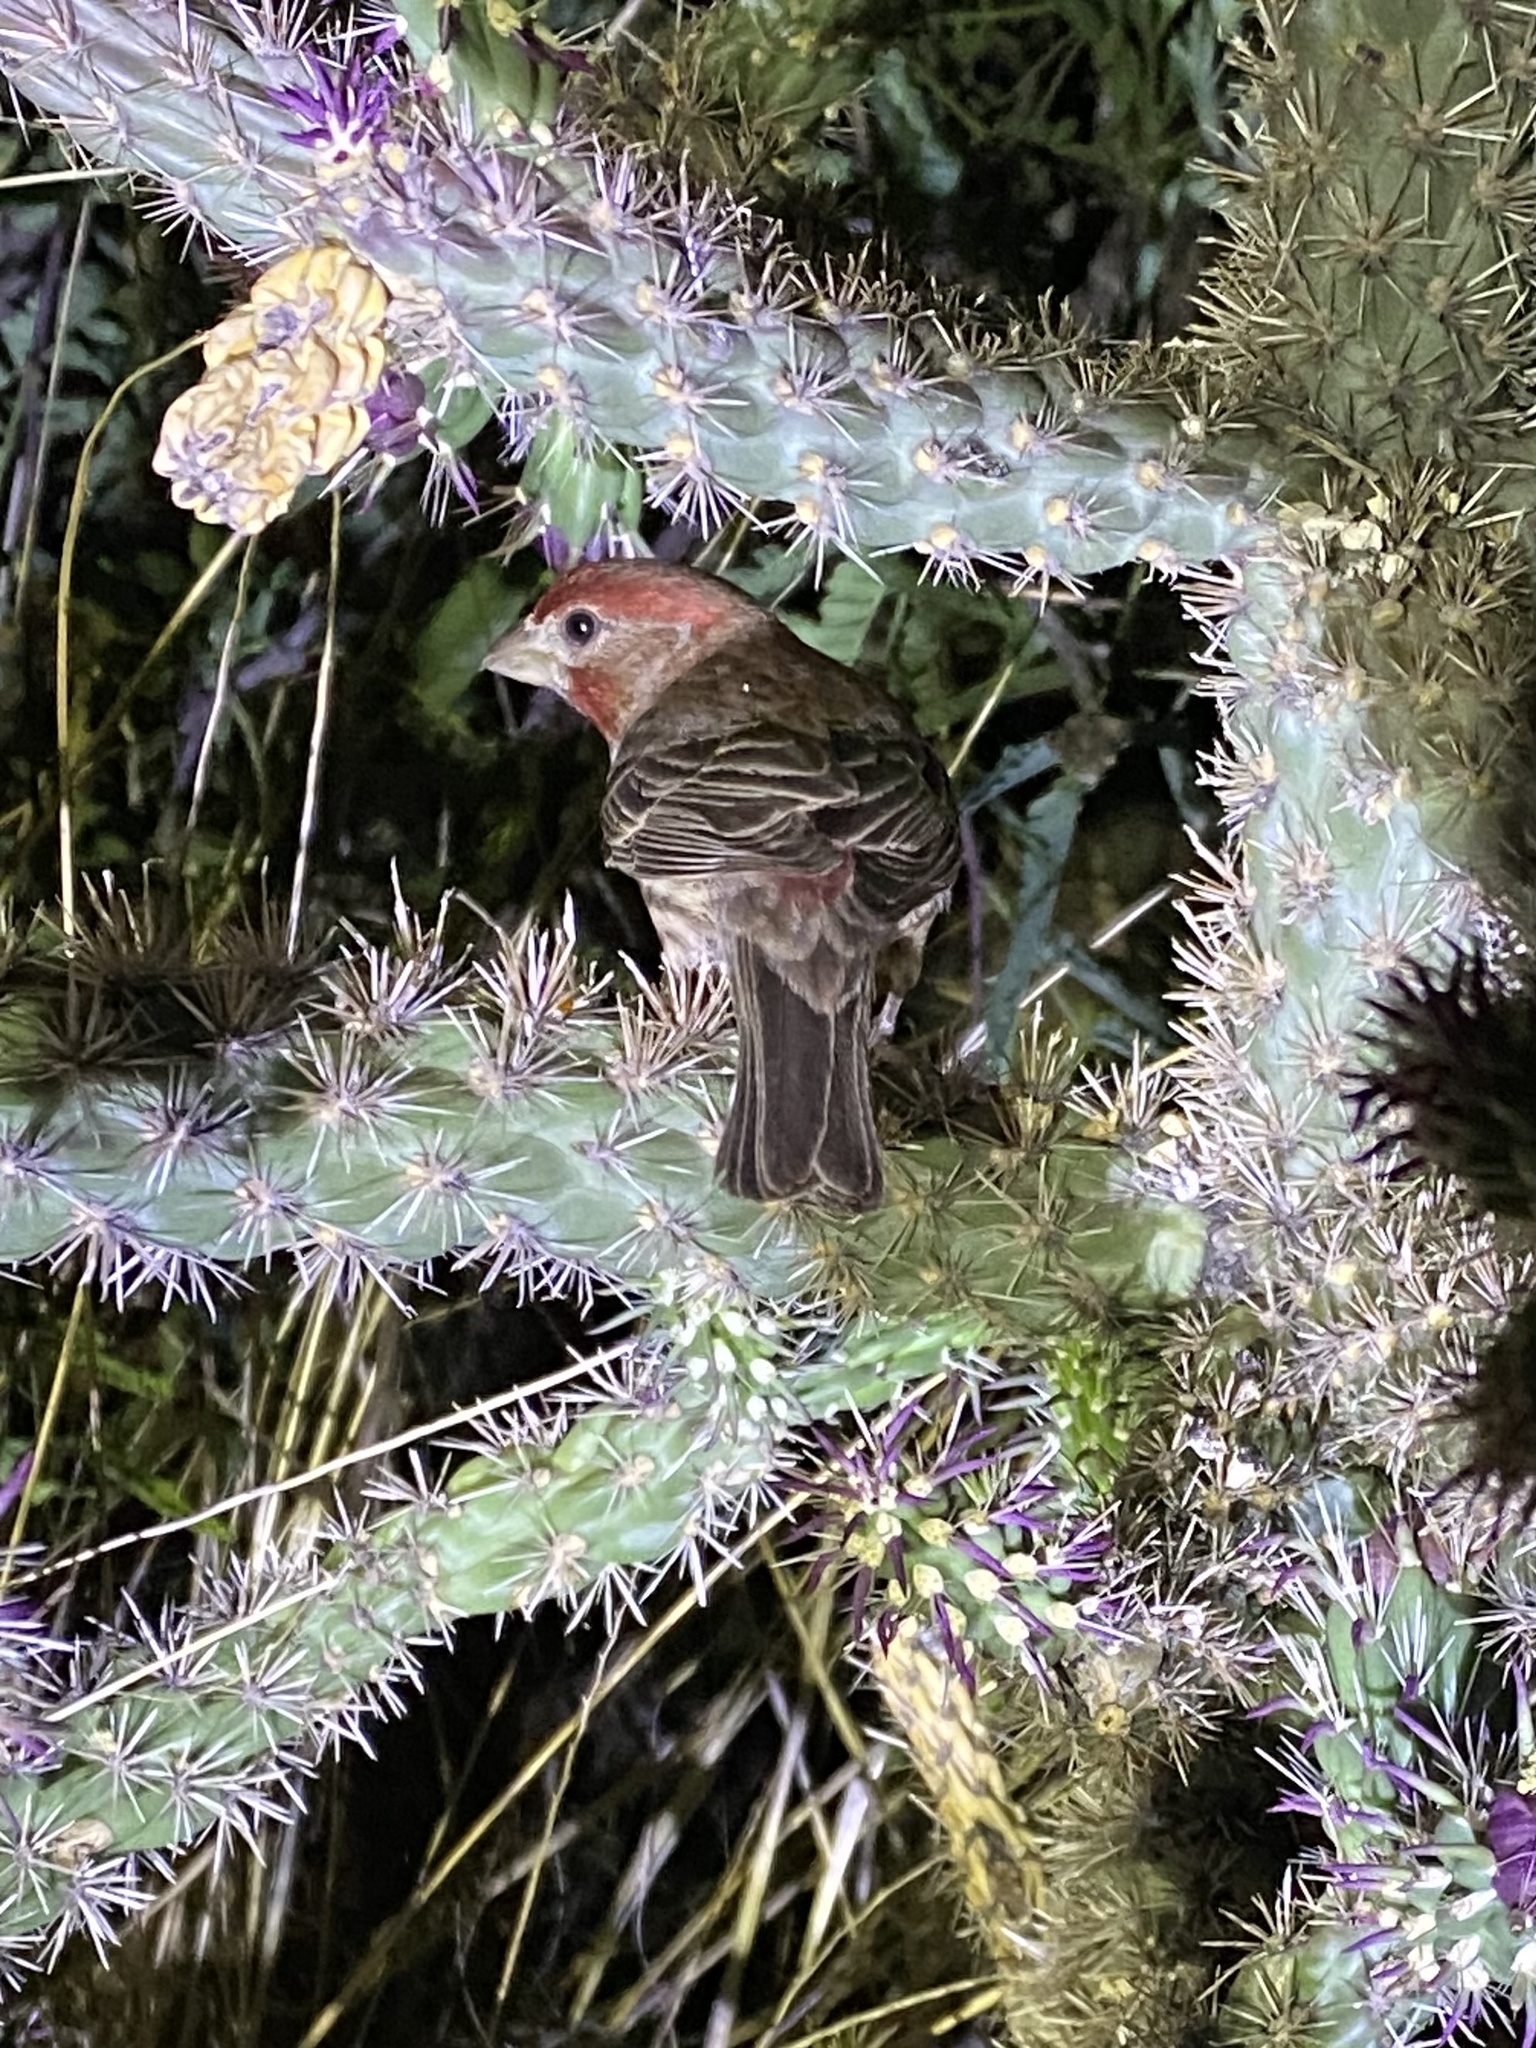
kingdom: Animalia
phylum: Chordata
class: Aves
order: Passeriformes
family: Fringillidae
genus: Haemorhous
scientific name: Haemorhous mexicanus
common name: House finch
